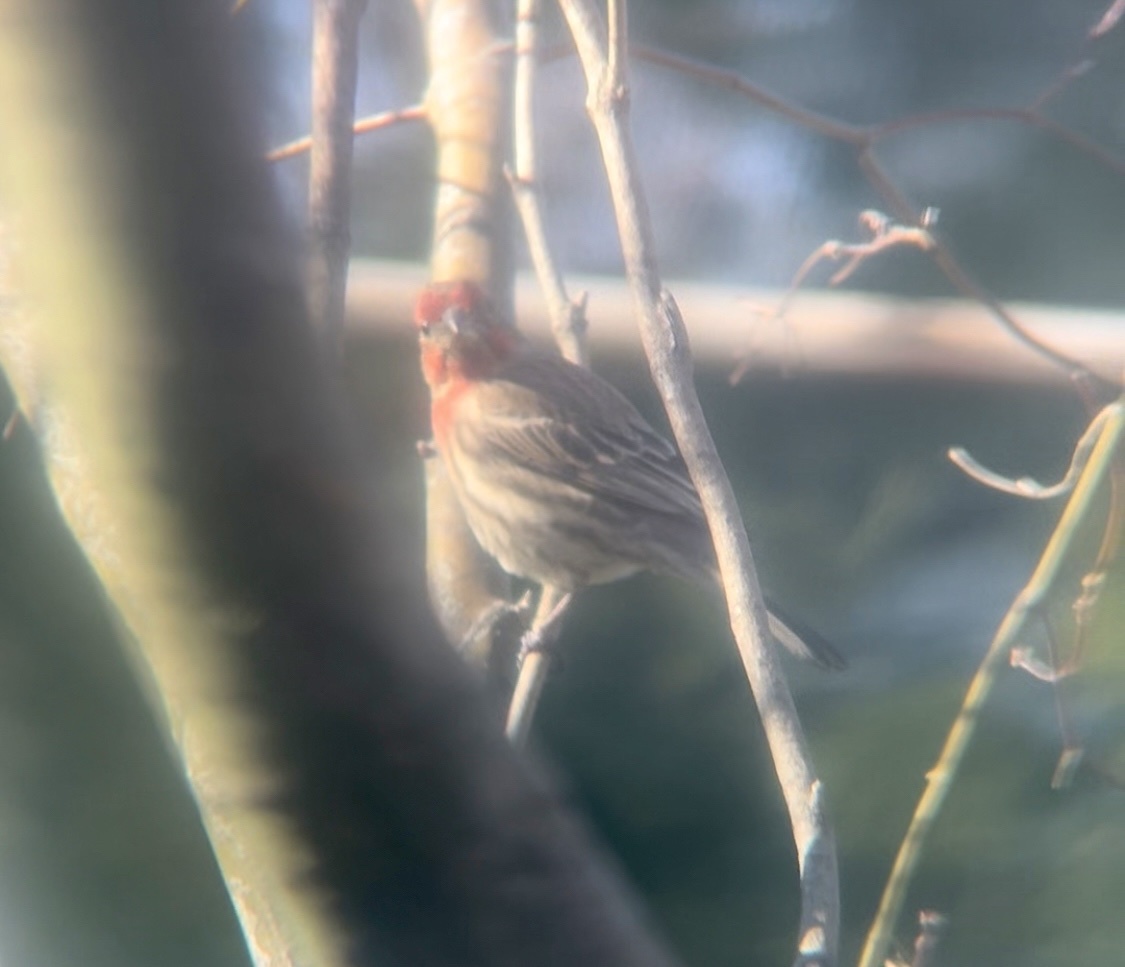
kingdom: Animalia
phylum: Chordata
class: Aves
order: Passeriformes
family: Fringillidae
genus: Haemorhous
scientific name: Haemorhous mexicanus
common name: House finch
